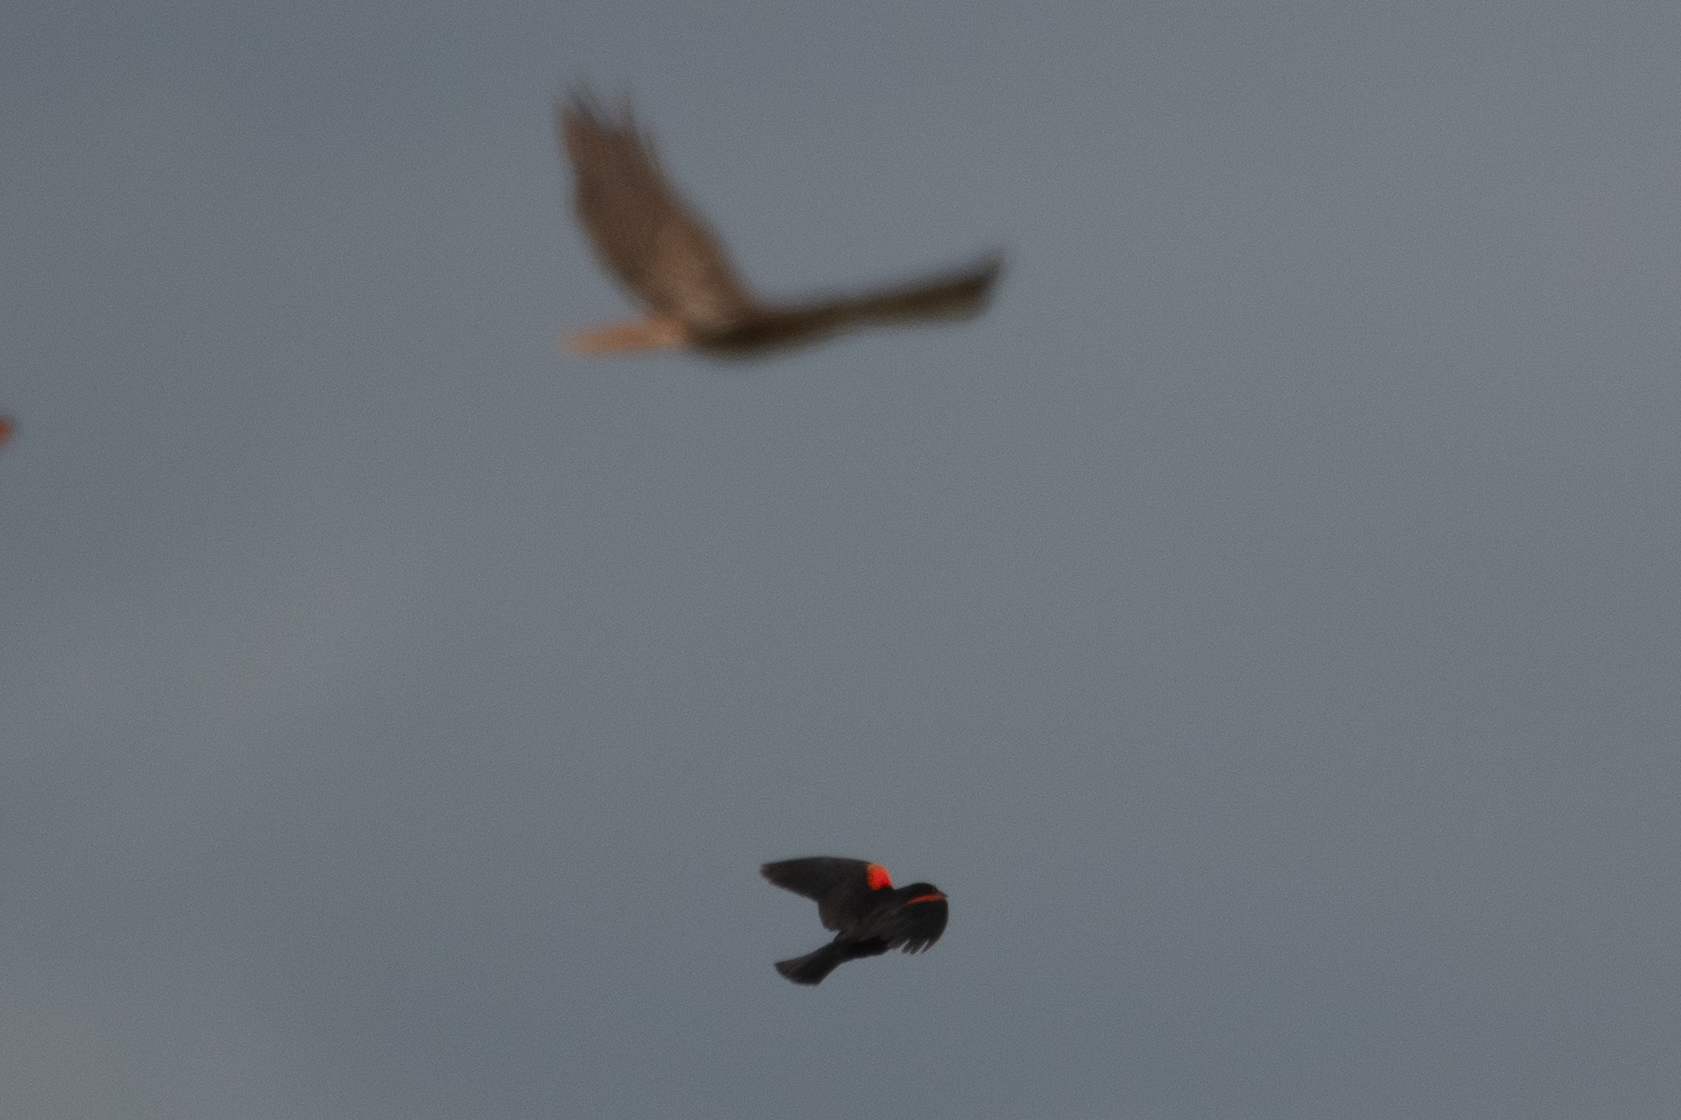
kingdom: Animalia
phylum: Chordata
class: Aves
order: Passeriformes
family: Icteridae
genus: Agelaius
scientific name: Agelaius phoeniceus
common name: Red-winged blackbird
